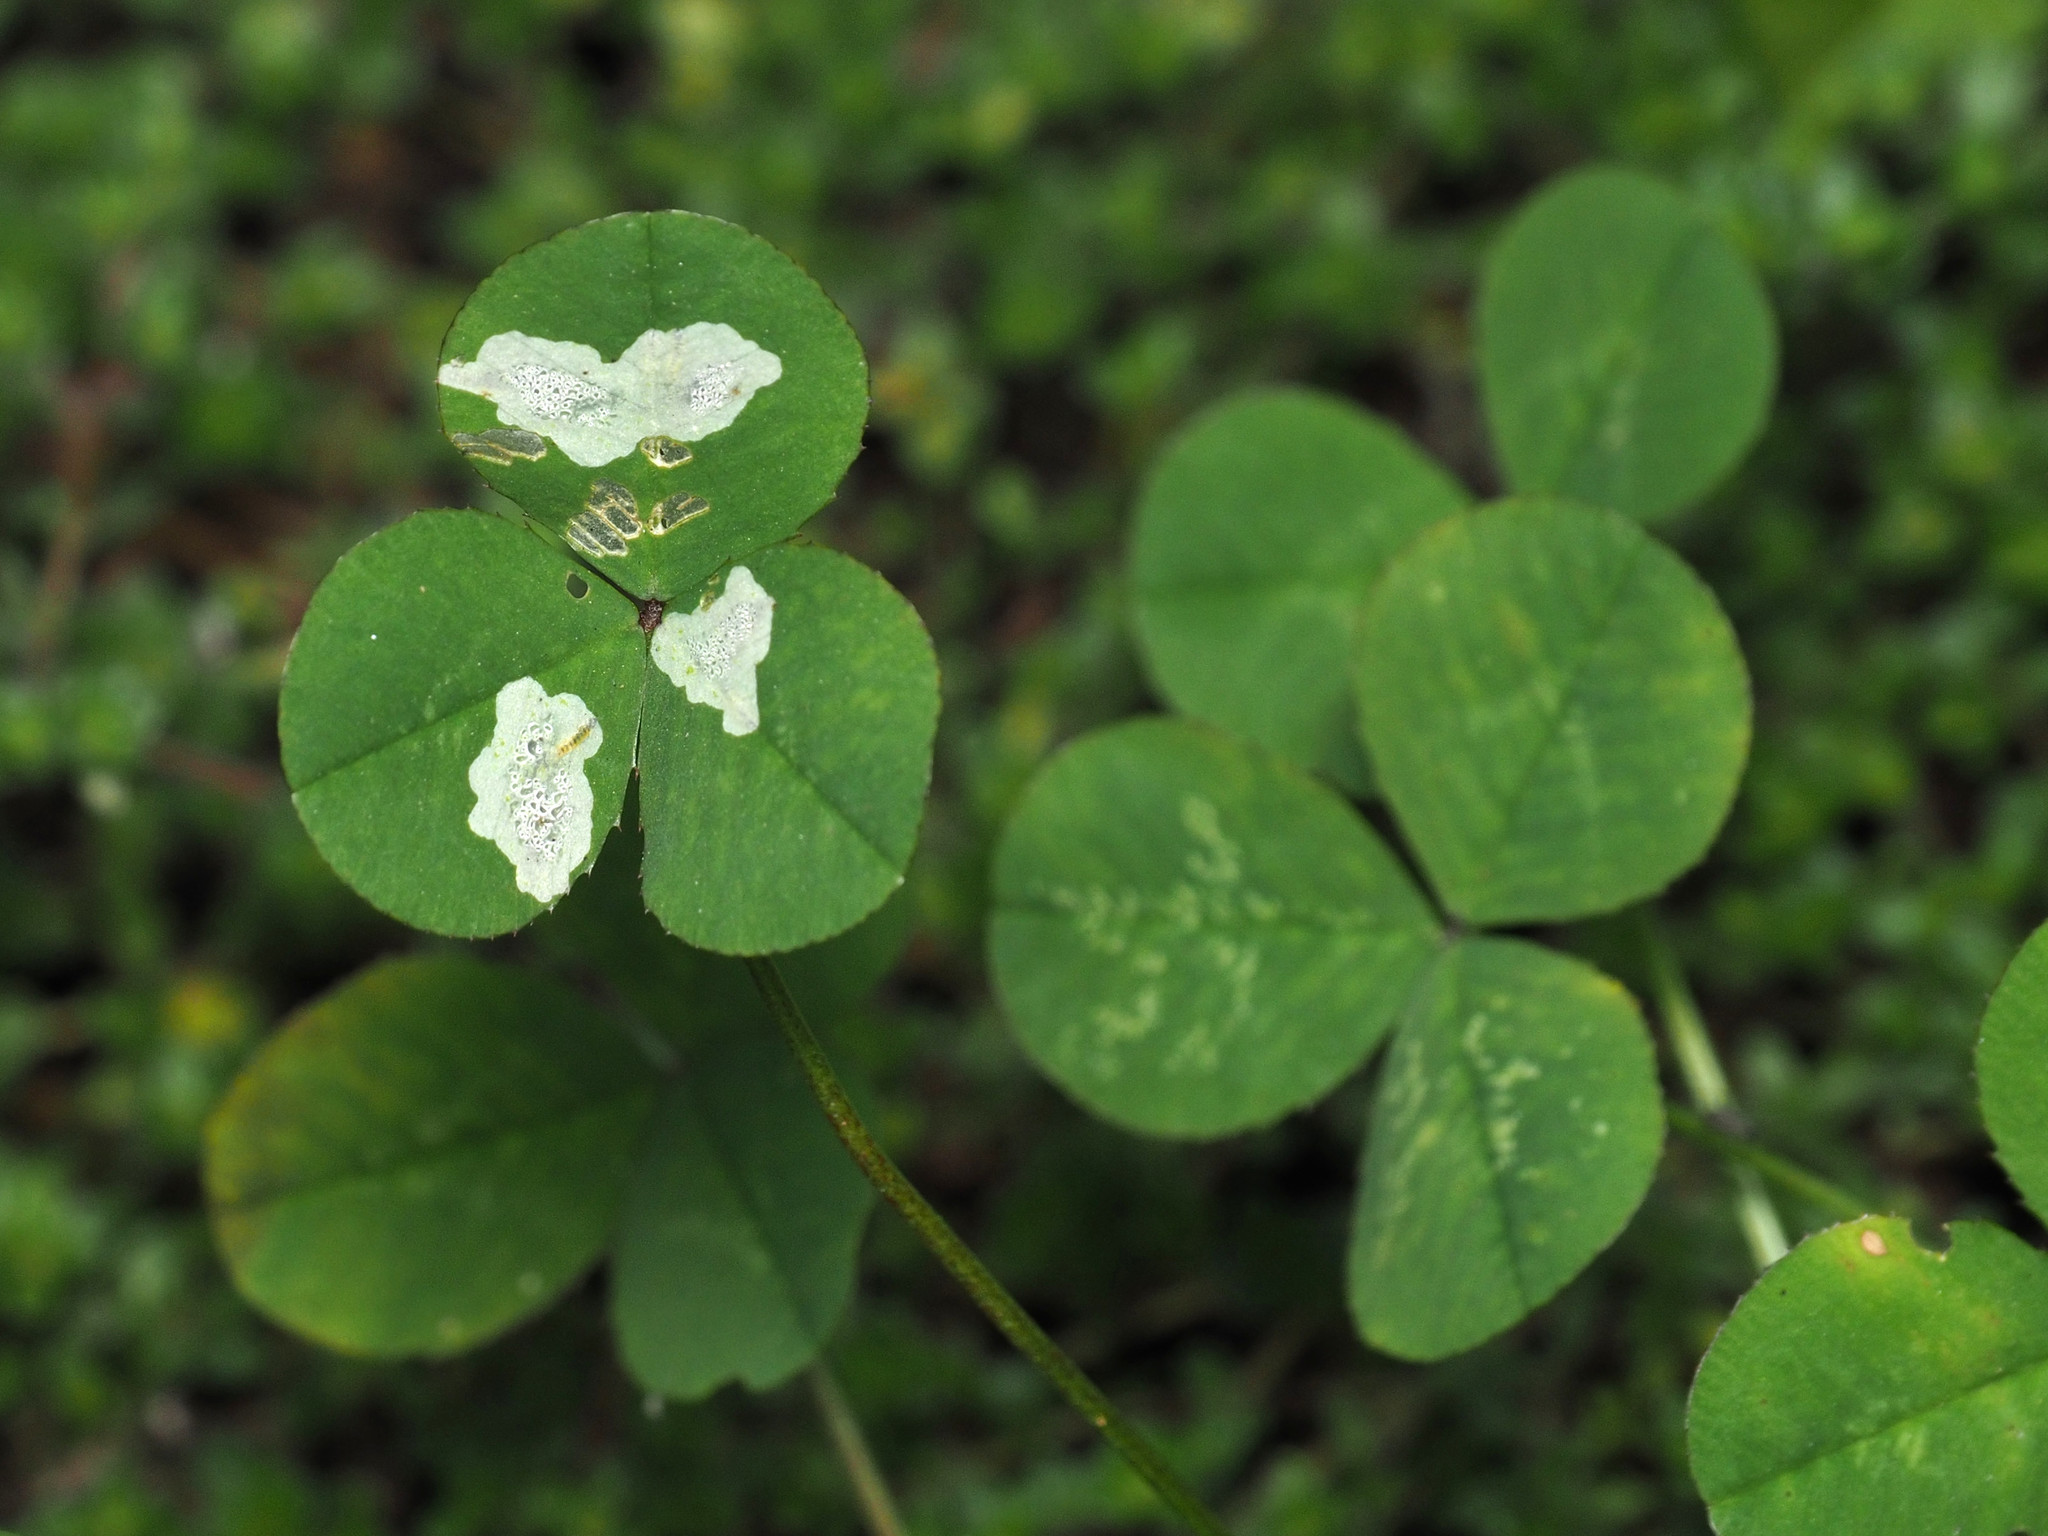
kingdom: Animalia
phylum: Arthropoda
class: Insecta
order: Lepidoptera
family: Gracillariidae
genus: Porphyrosela
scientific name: Porphyrosela minuta
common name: Leaf miner moth
